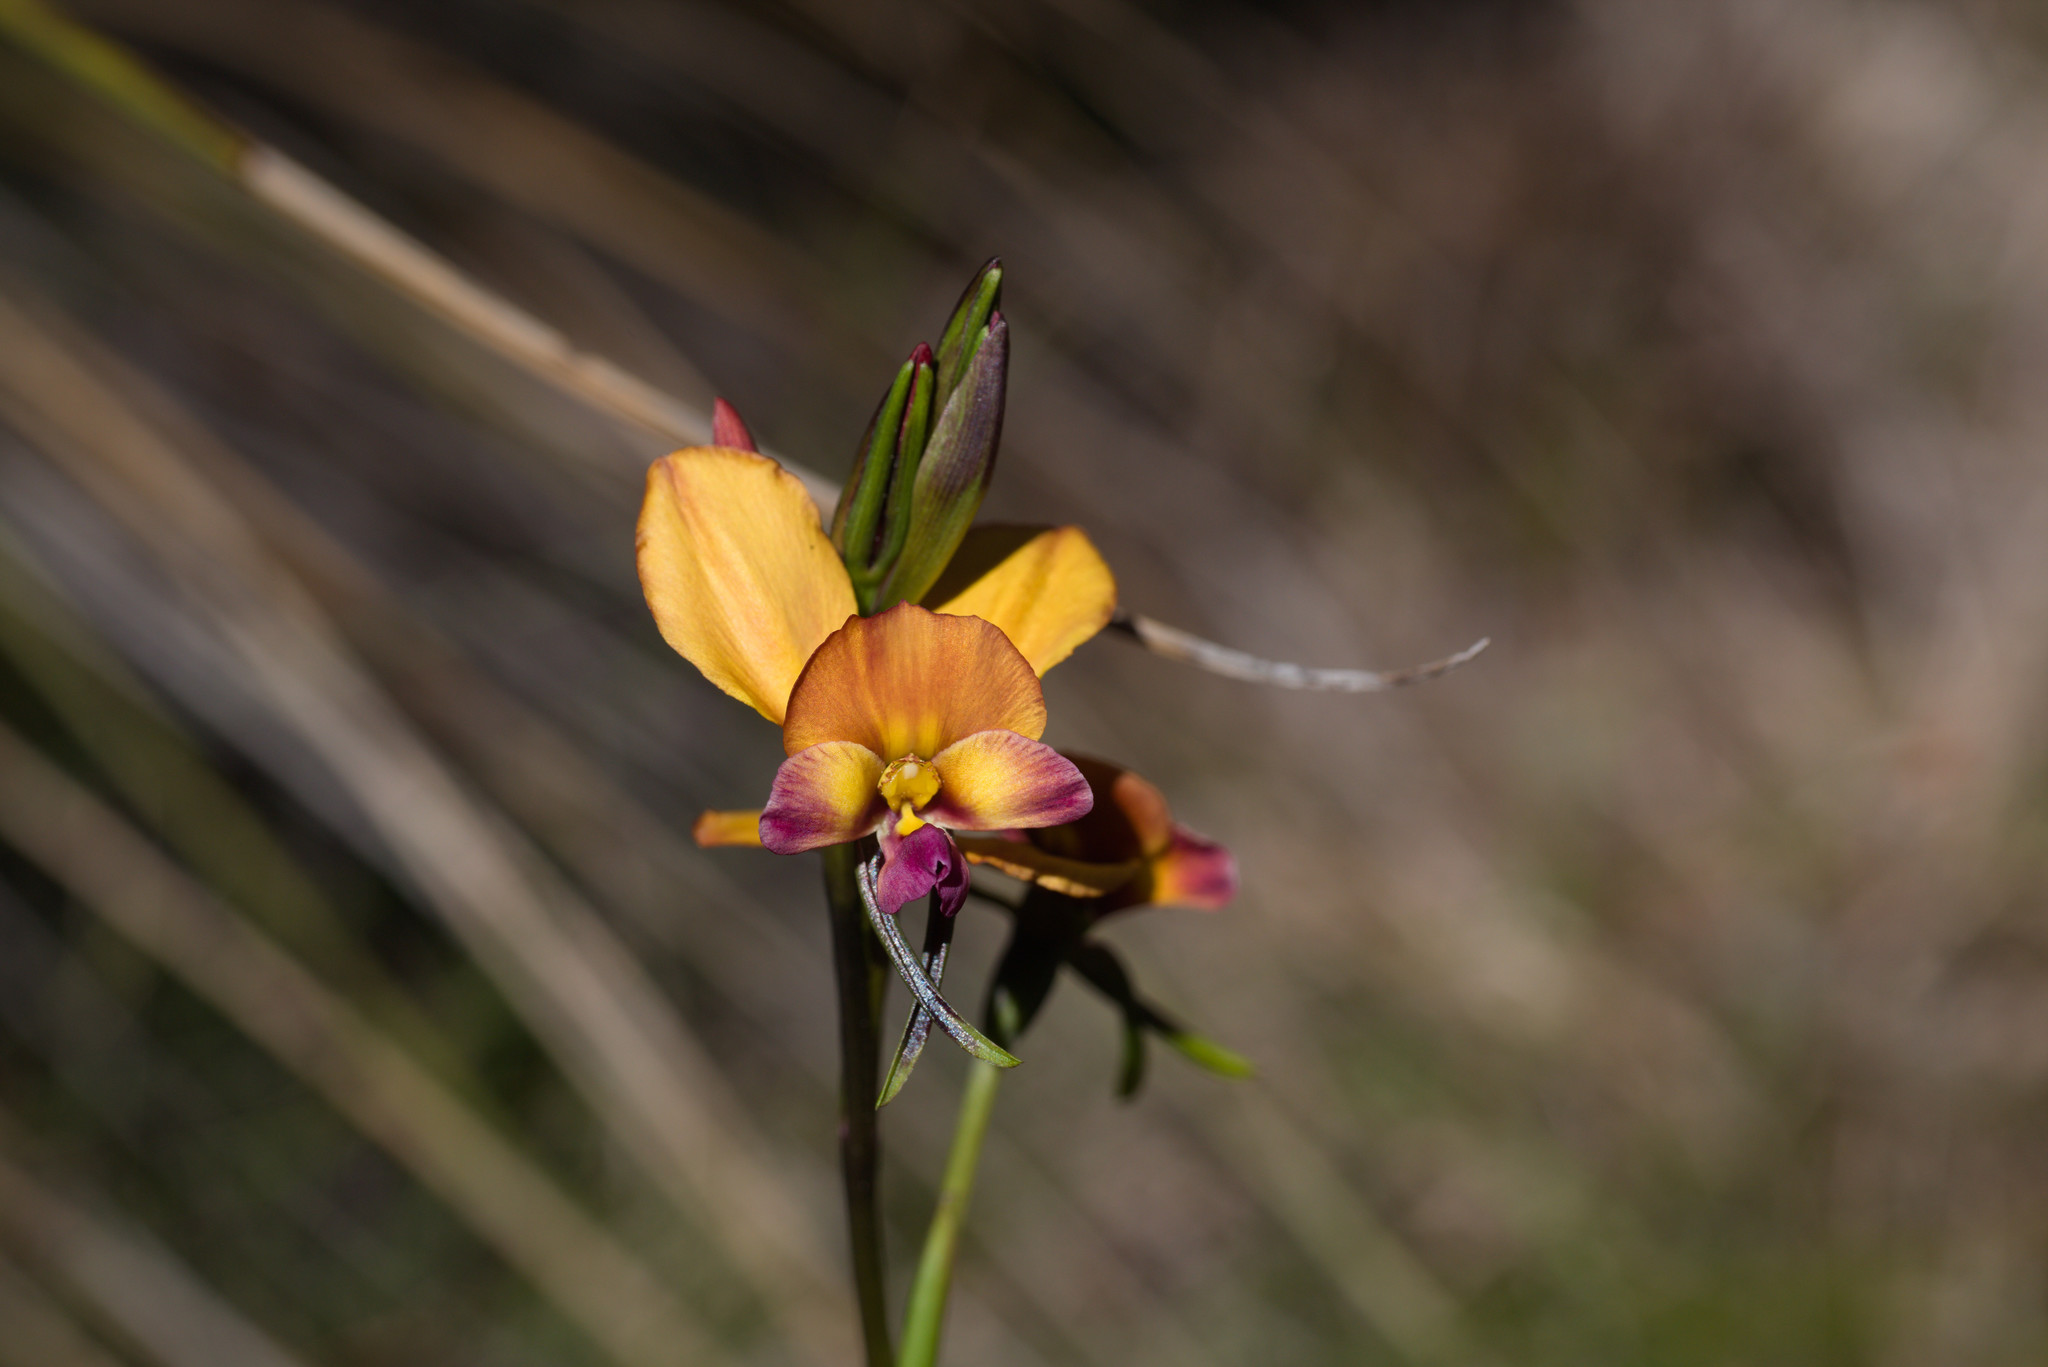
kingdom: Plantae
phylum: Tracheophyta
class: Liliopsida
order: Asparagales
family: Orchidaceae
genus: Diuris
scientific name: Diuris magnifica
